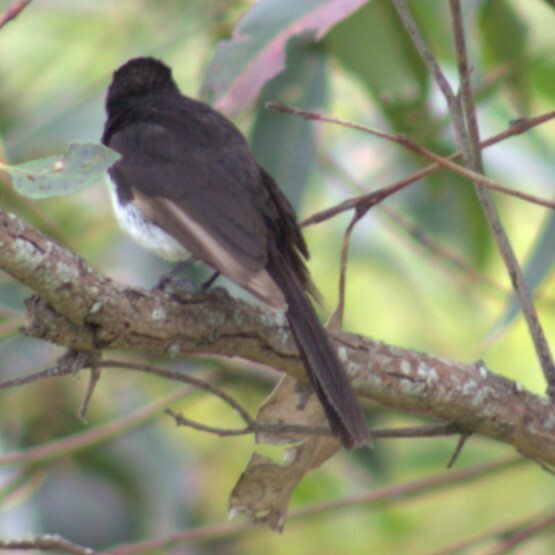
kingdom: Animalia
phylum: Chordata
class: Aves
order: Passeriformes
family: Rhipiduridae
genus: Rhipidura
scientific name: Rhipidura leucophrys
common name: Willie wagtail
